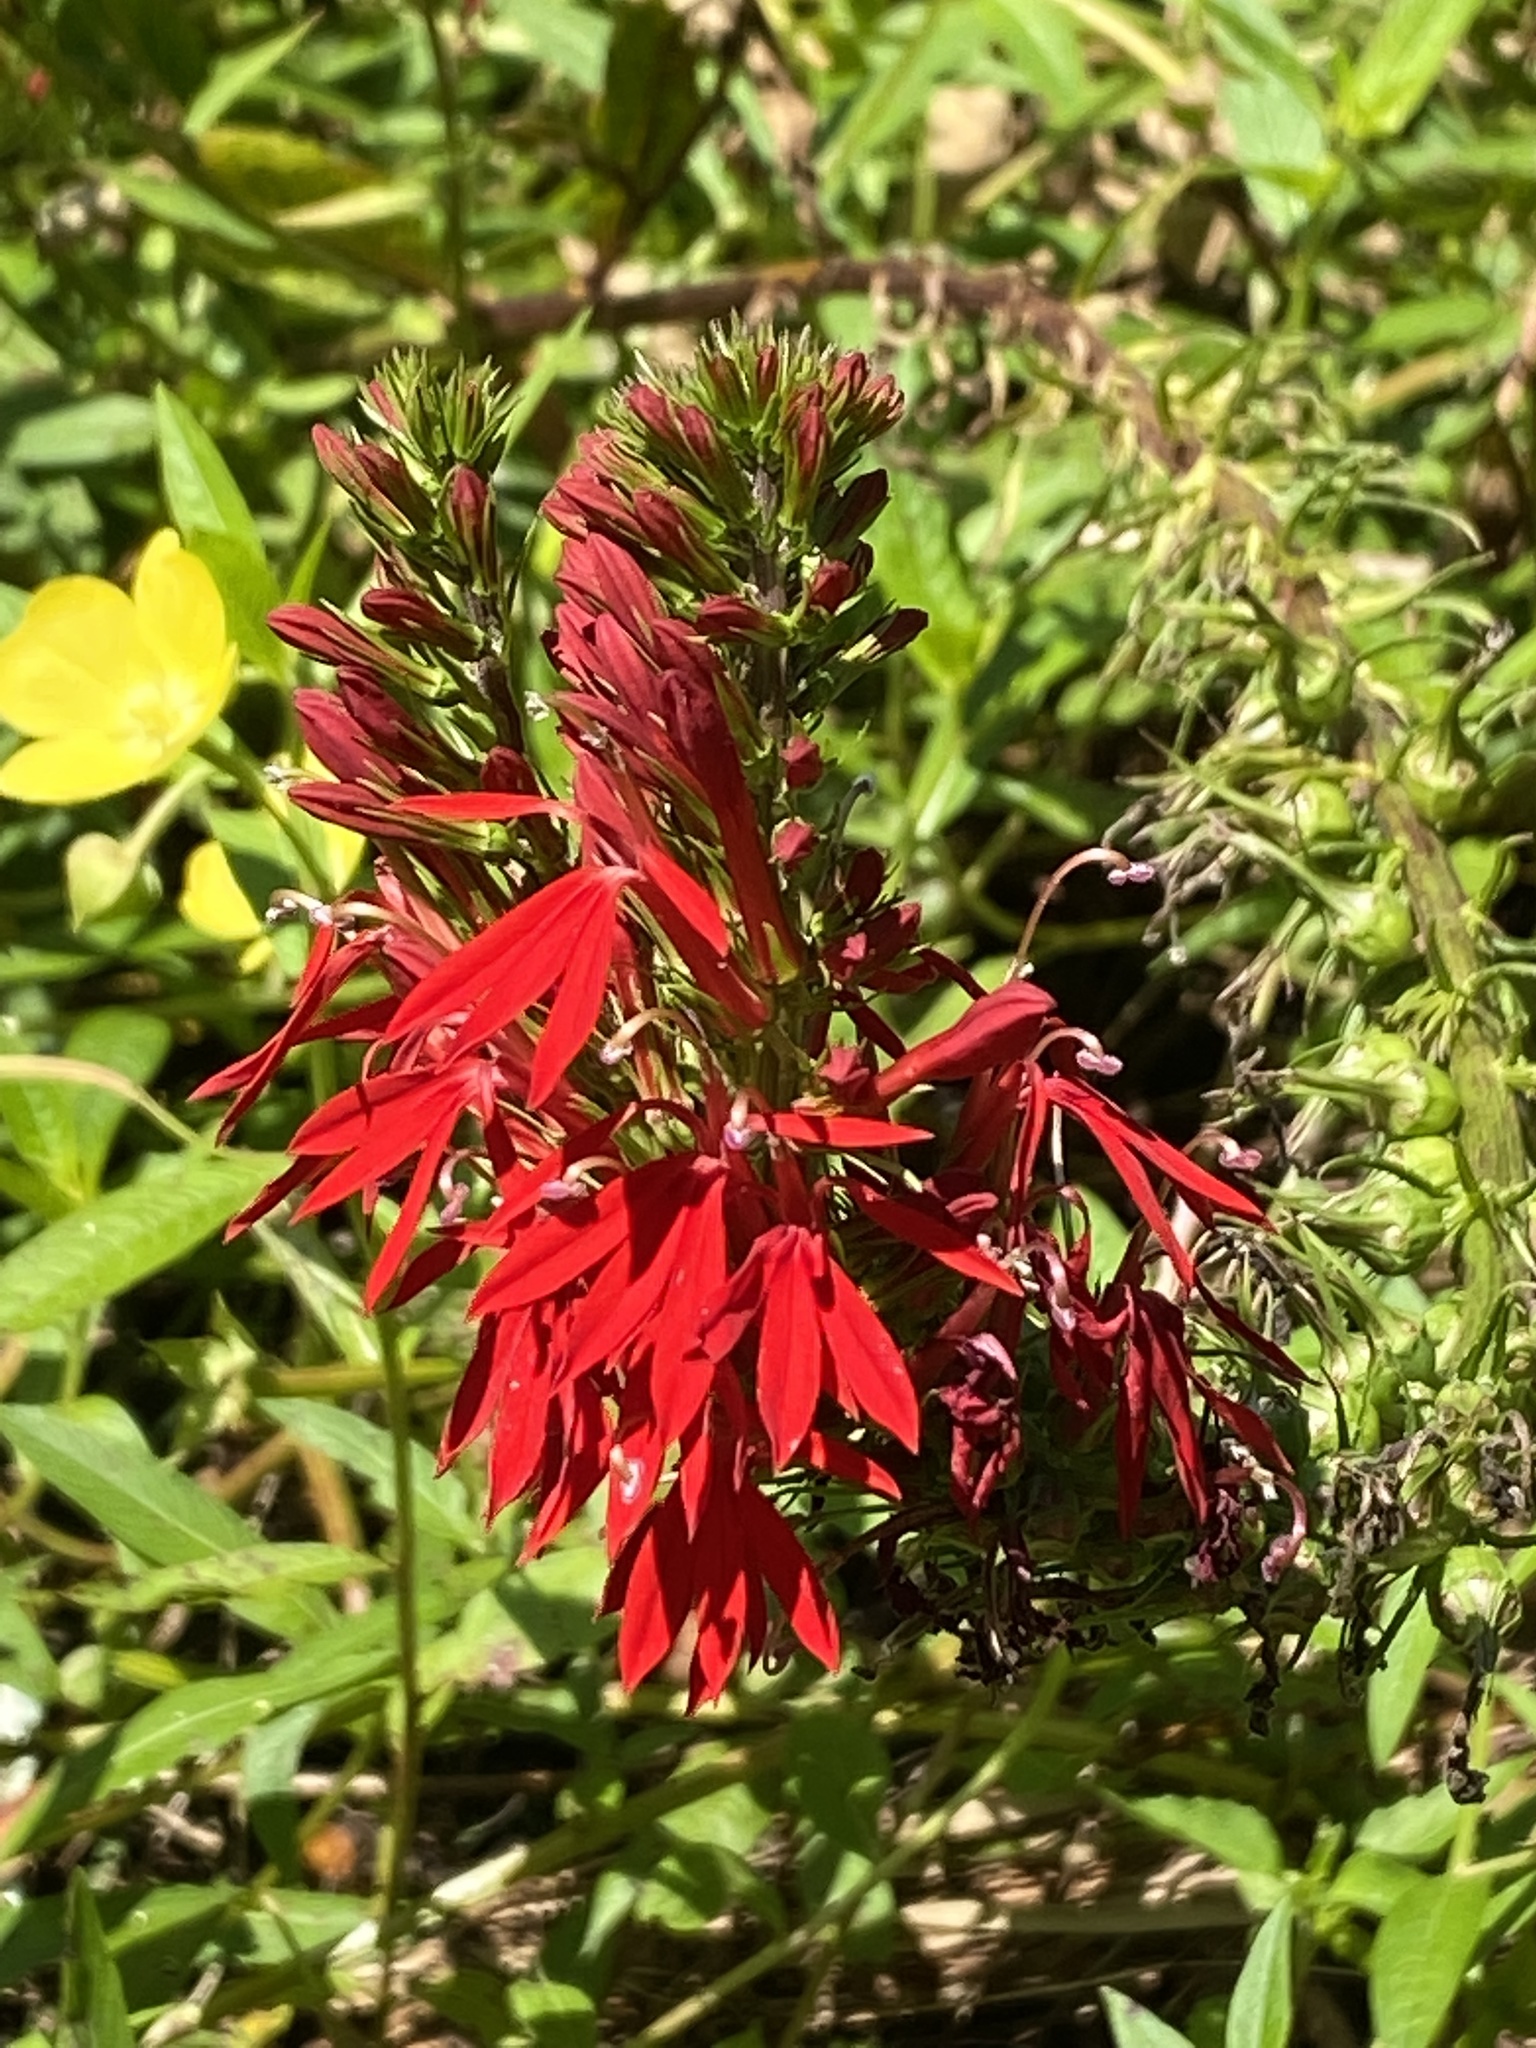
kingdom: Plantae
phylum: Tracheophyta
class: Magnoliopsida
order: Asterales
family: Campanulaceae
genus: Lobelia
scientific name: Lobelia cardinalis
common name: Cardinal flower
